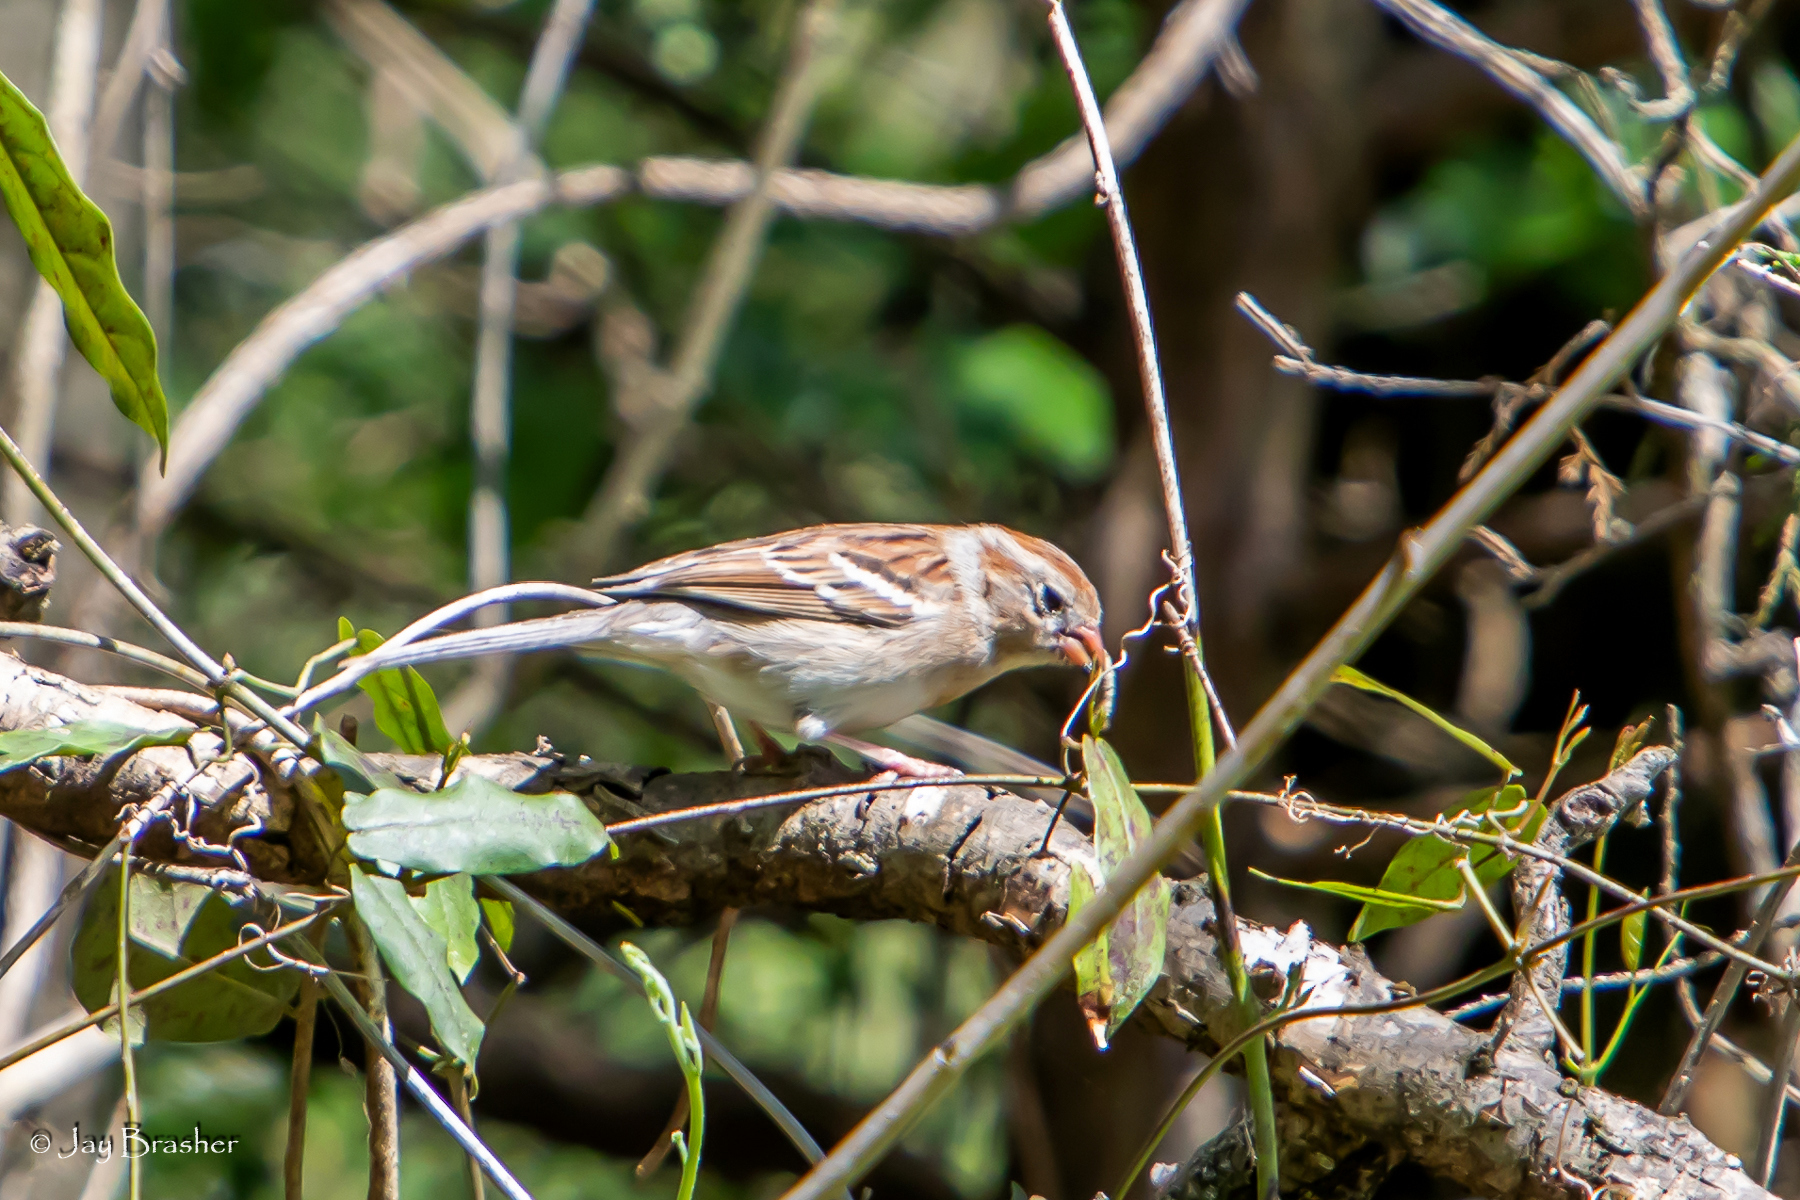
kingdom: Animalia
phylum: Chordata
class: Aves
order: Passeriformes
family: Passerellidae
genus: Spizella
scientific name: Spizella pusilla
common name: Field sparrow
